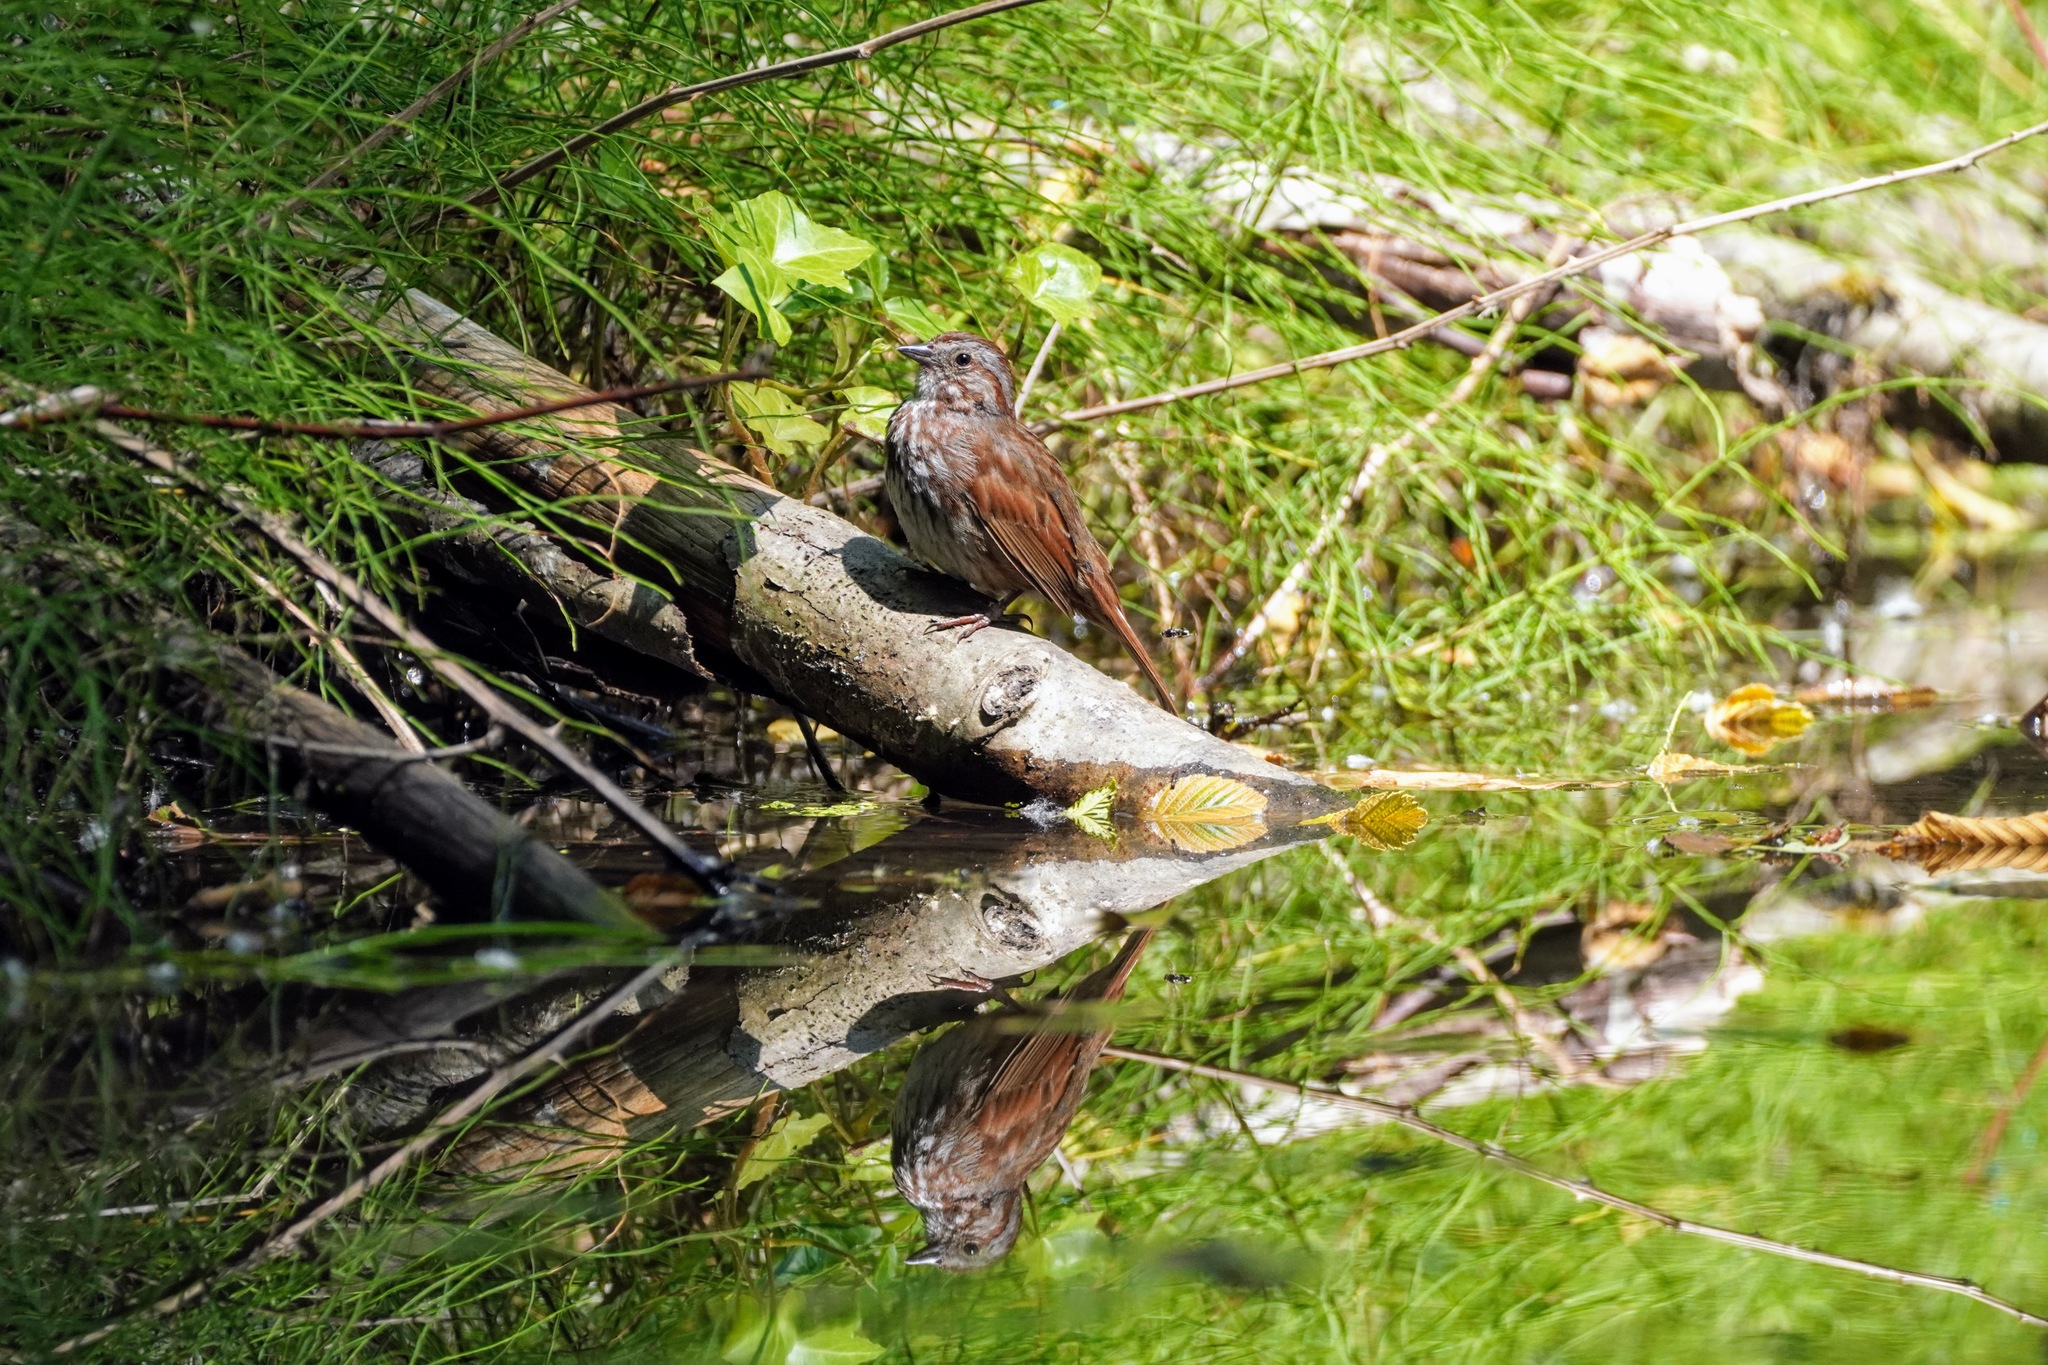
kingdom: Animalia
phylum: Chordata
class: Aves
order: Passeriformes
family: Passerellidae
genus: Melospiza
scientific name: Melospiza melodia
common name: Song sparrow
